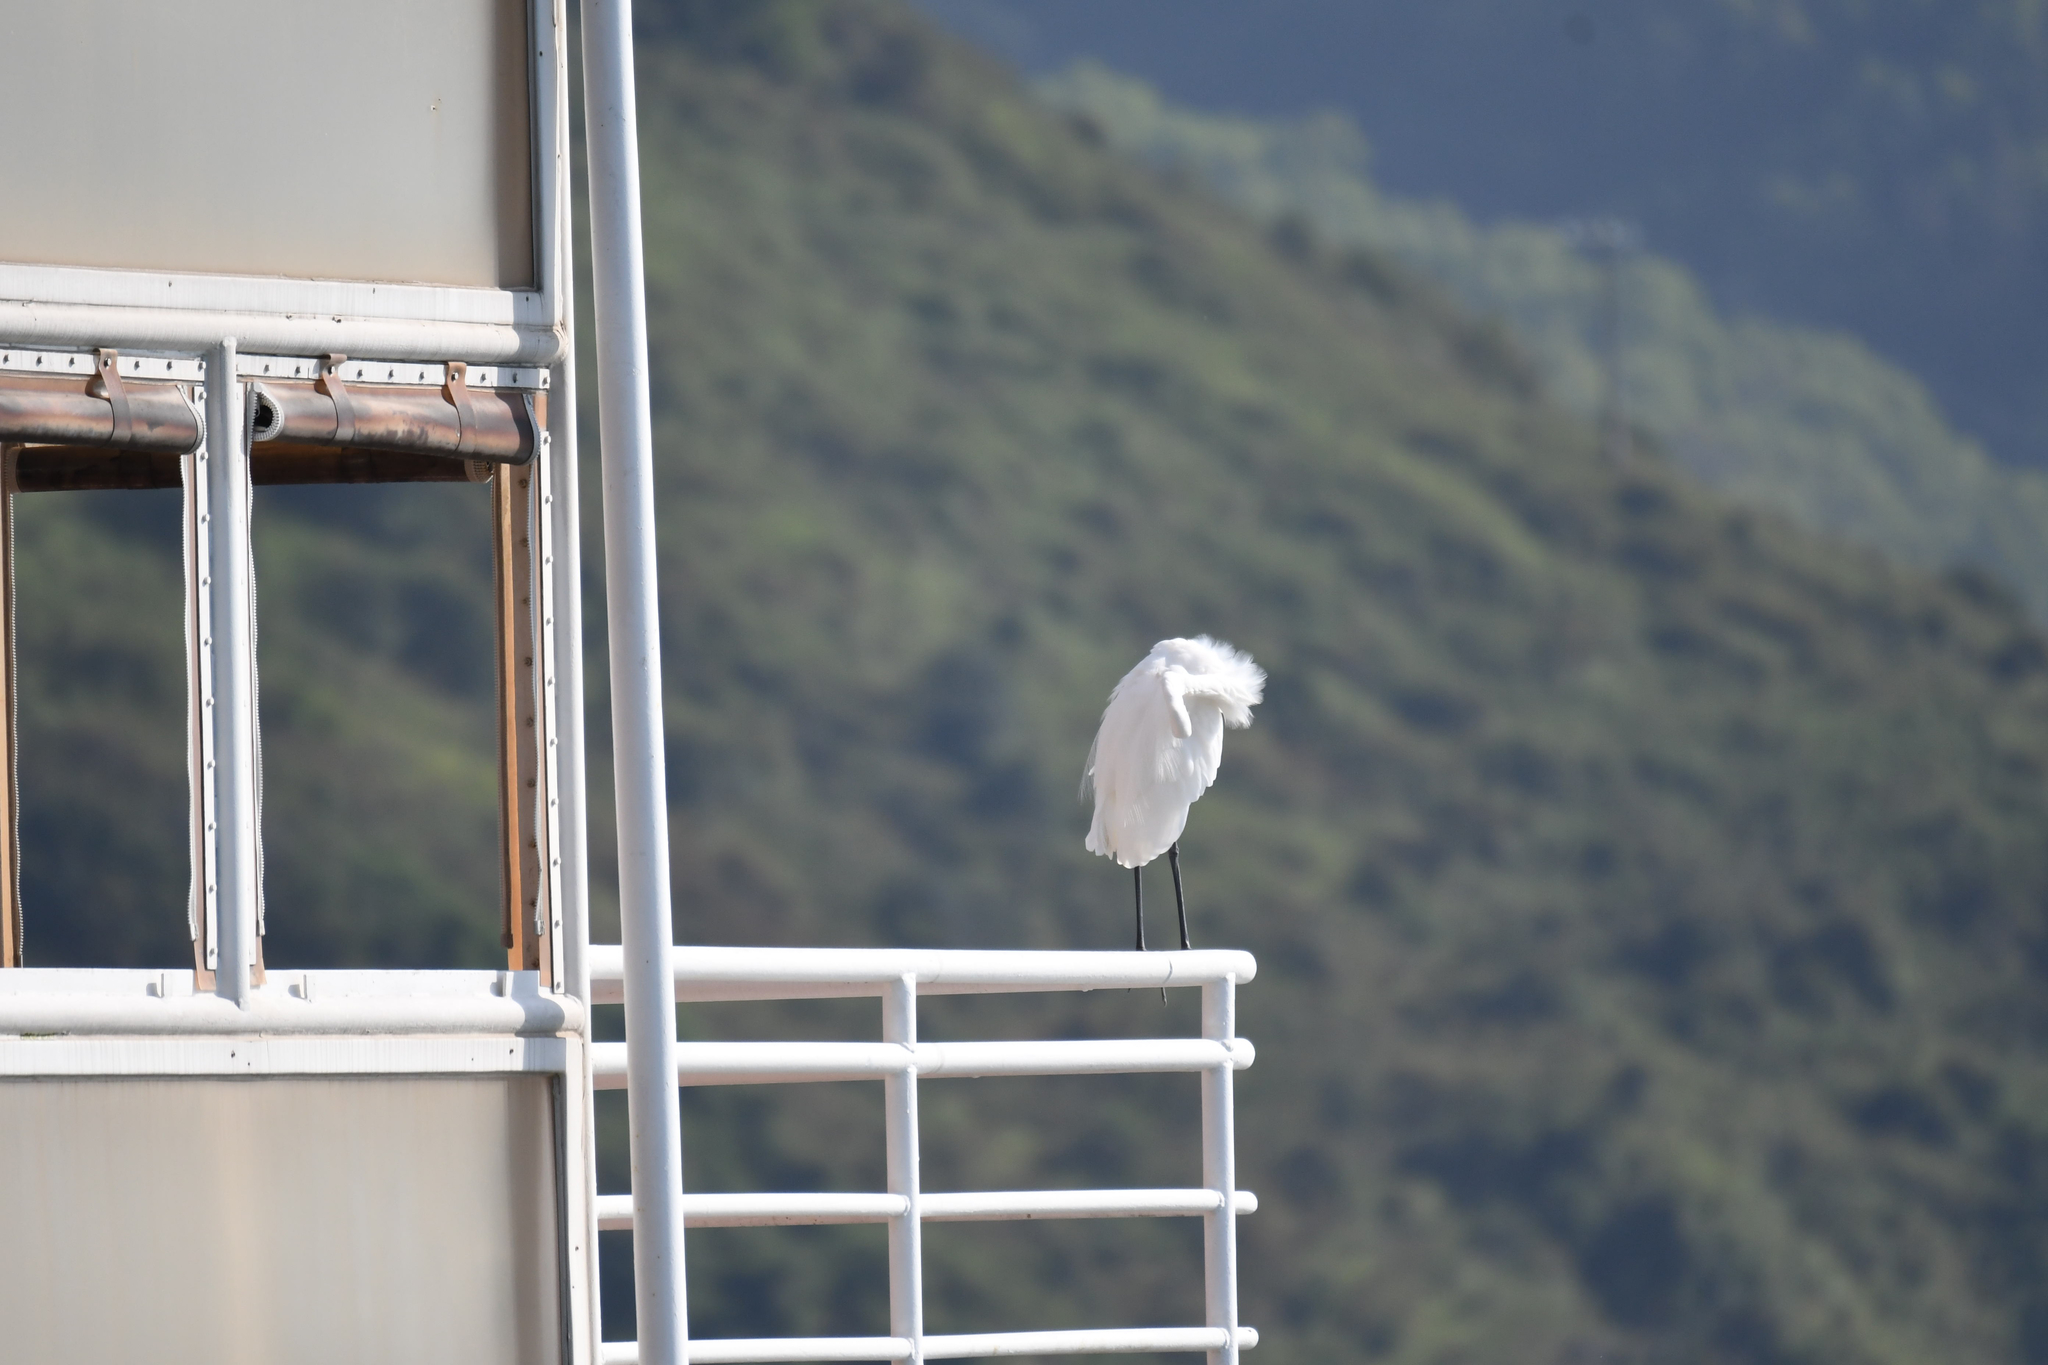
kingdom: Animalia
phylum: Chordata
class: Aves
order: Pelecaniformes
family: Ardeidae
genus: Ardea
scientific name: Ardea alba
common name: Great egret
